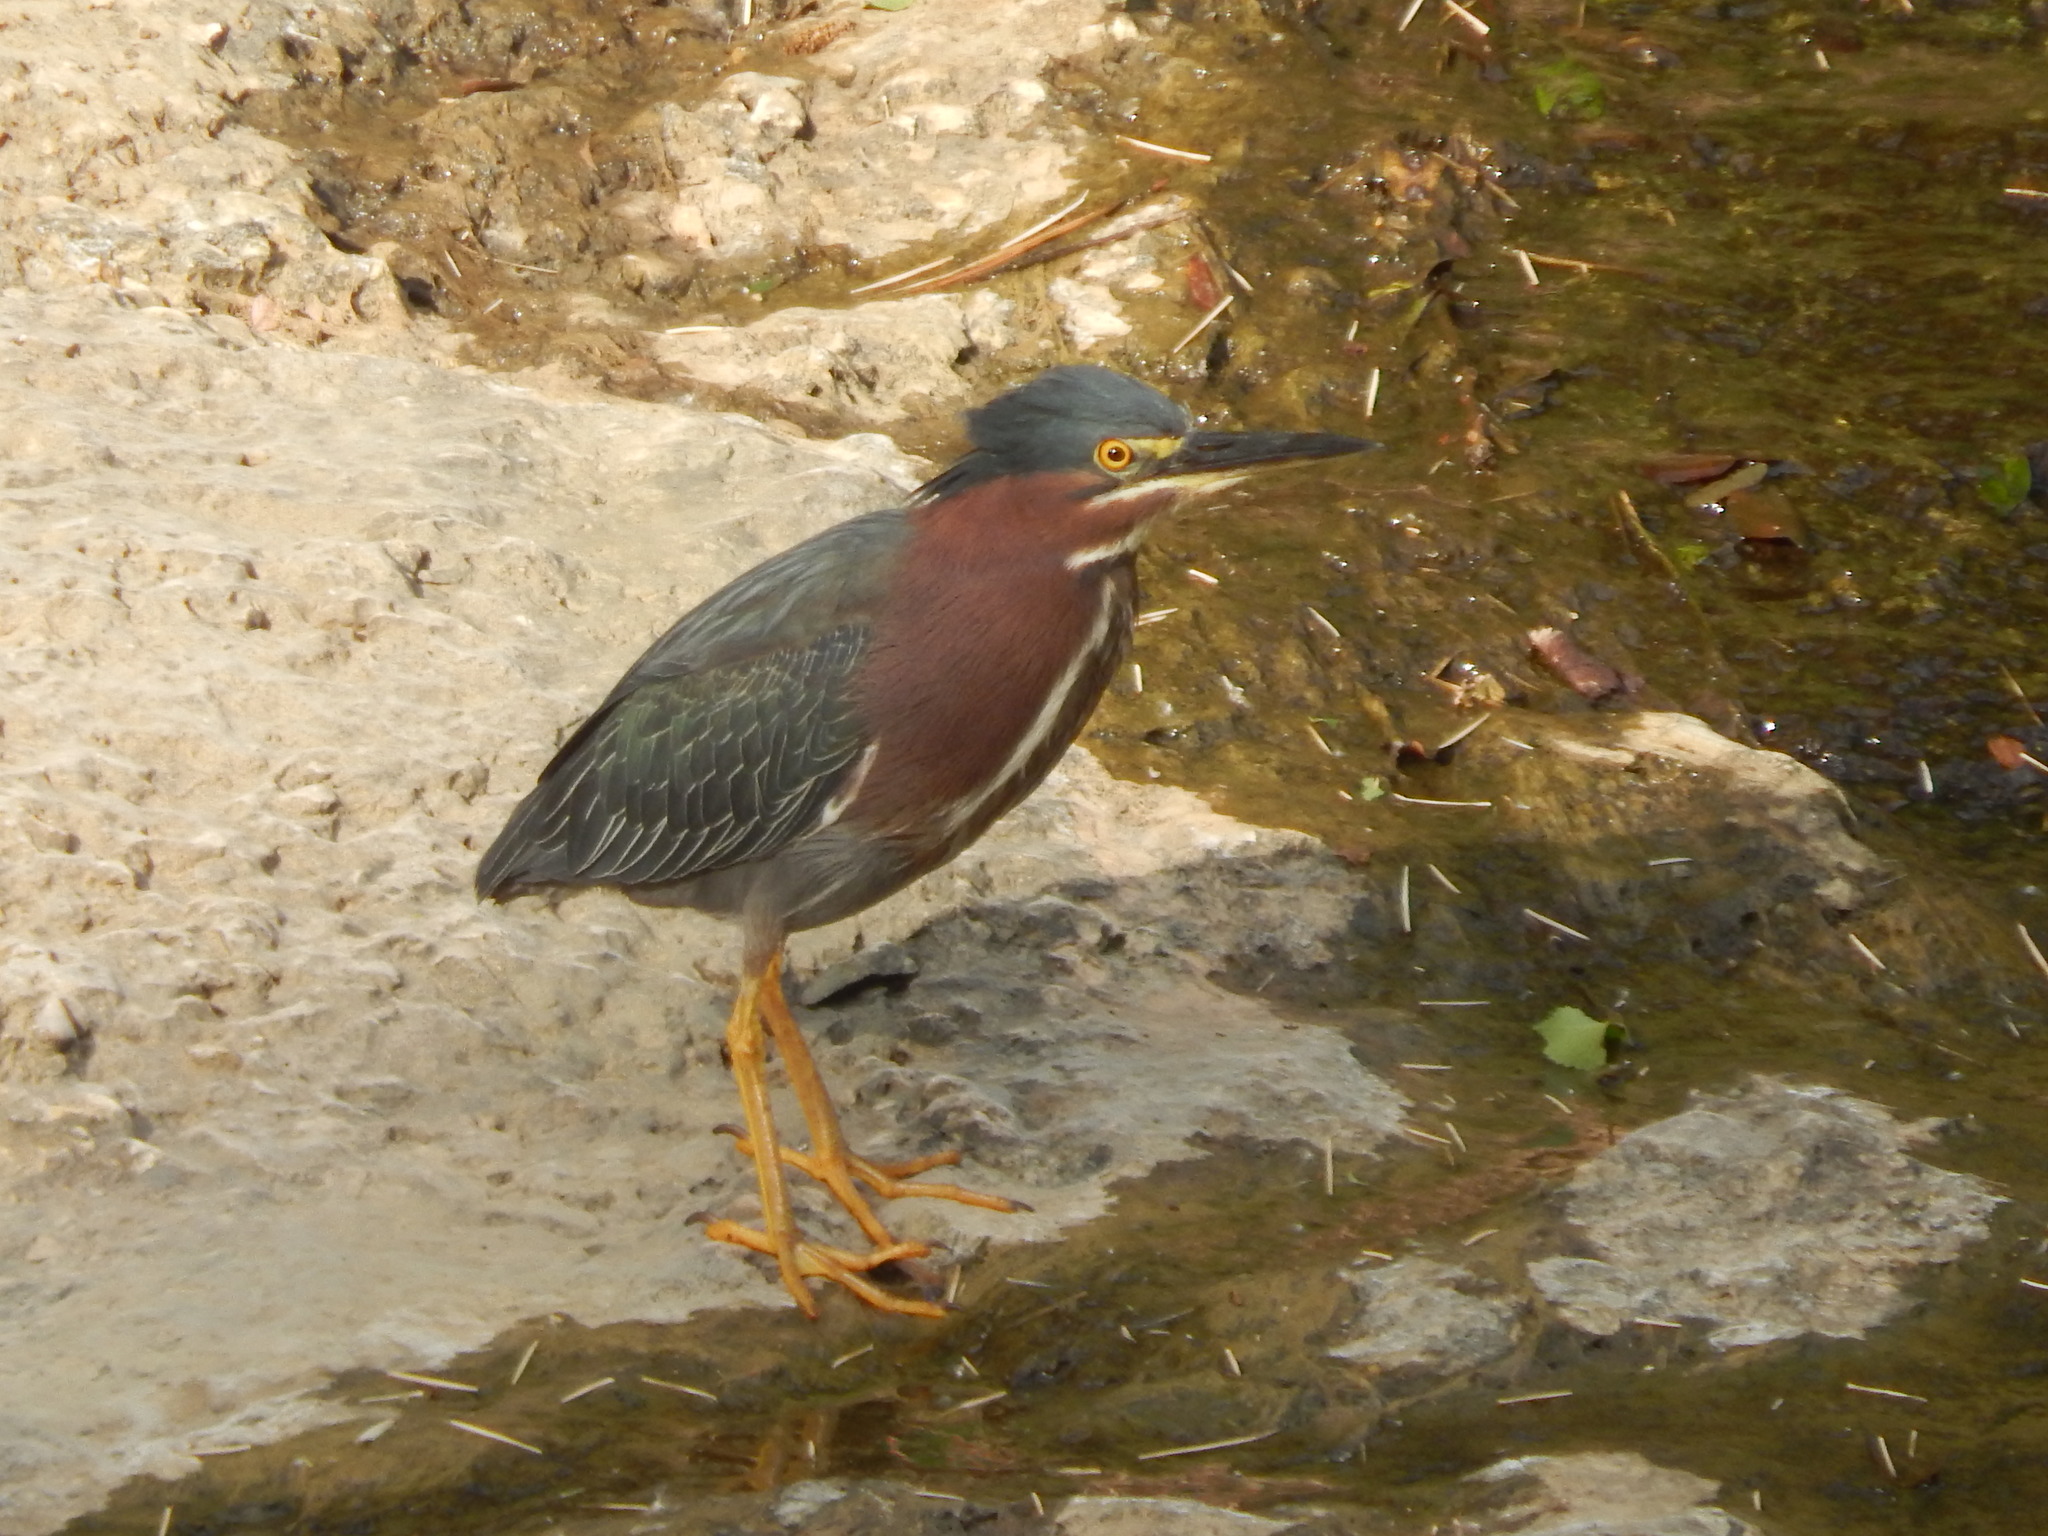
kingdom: Animalia
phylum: Chordata
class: Aves
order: Pelecaniformes
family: Ardeidae
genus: Butorides
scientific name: Butorides virescens
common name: Green heron
